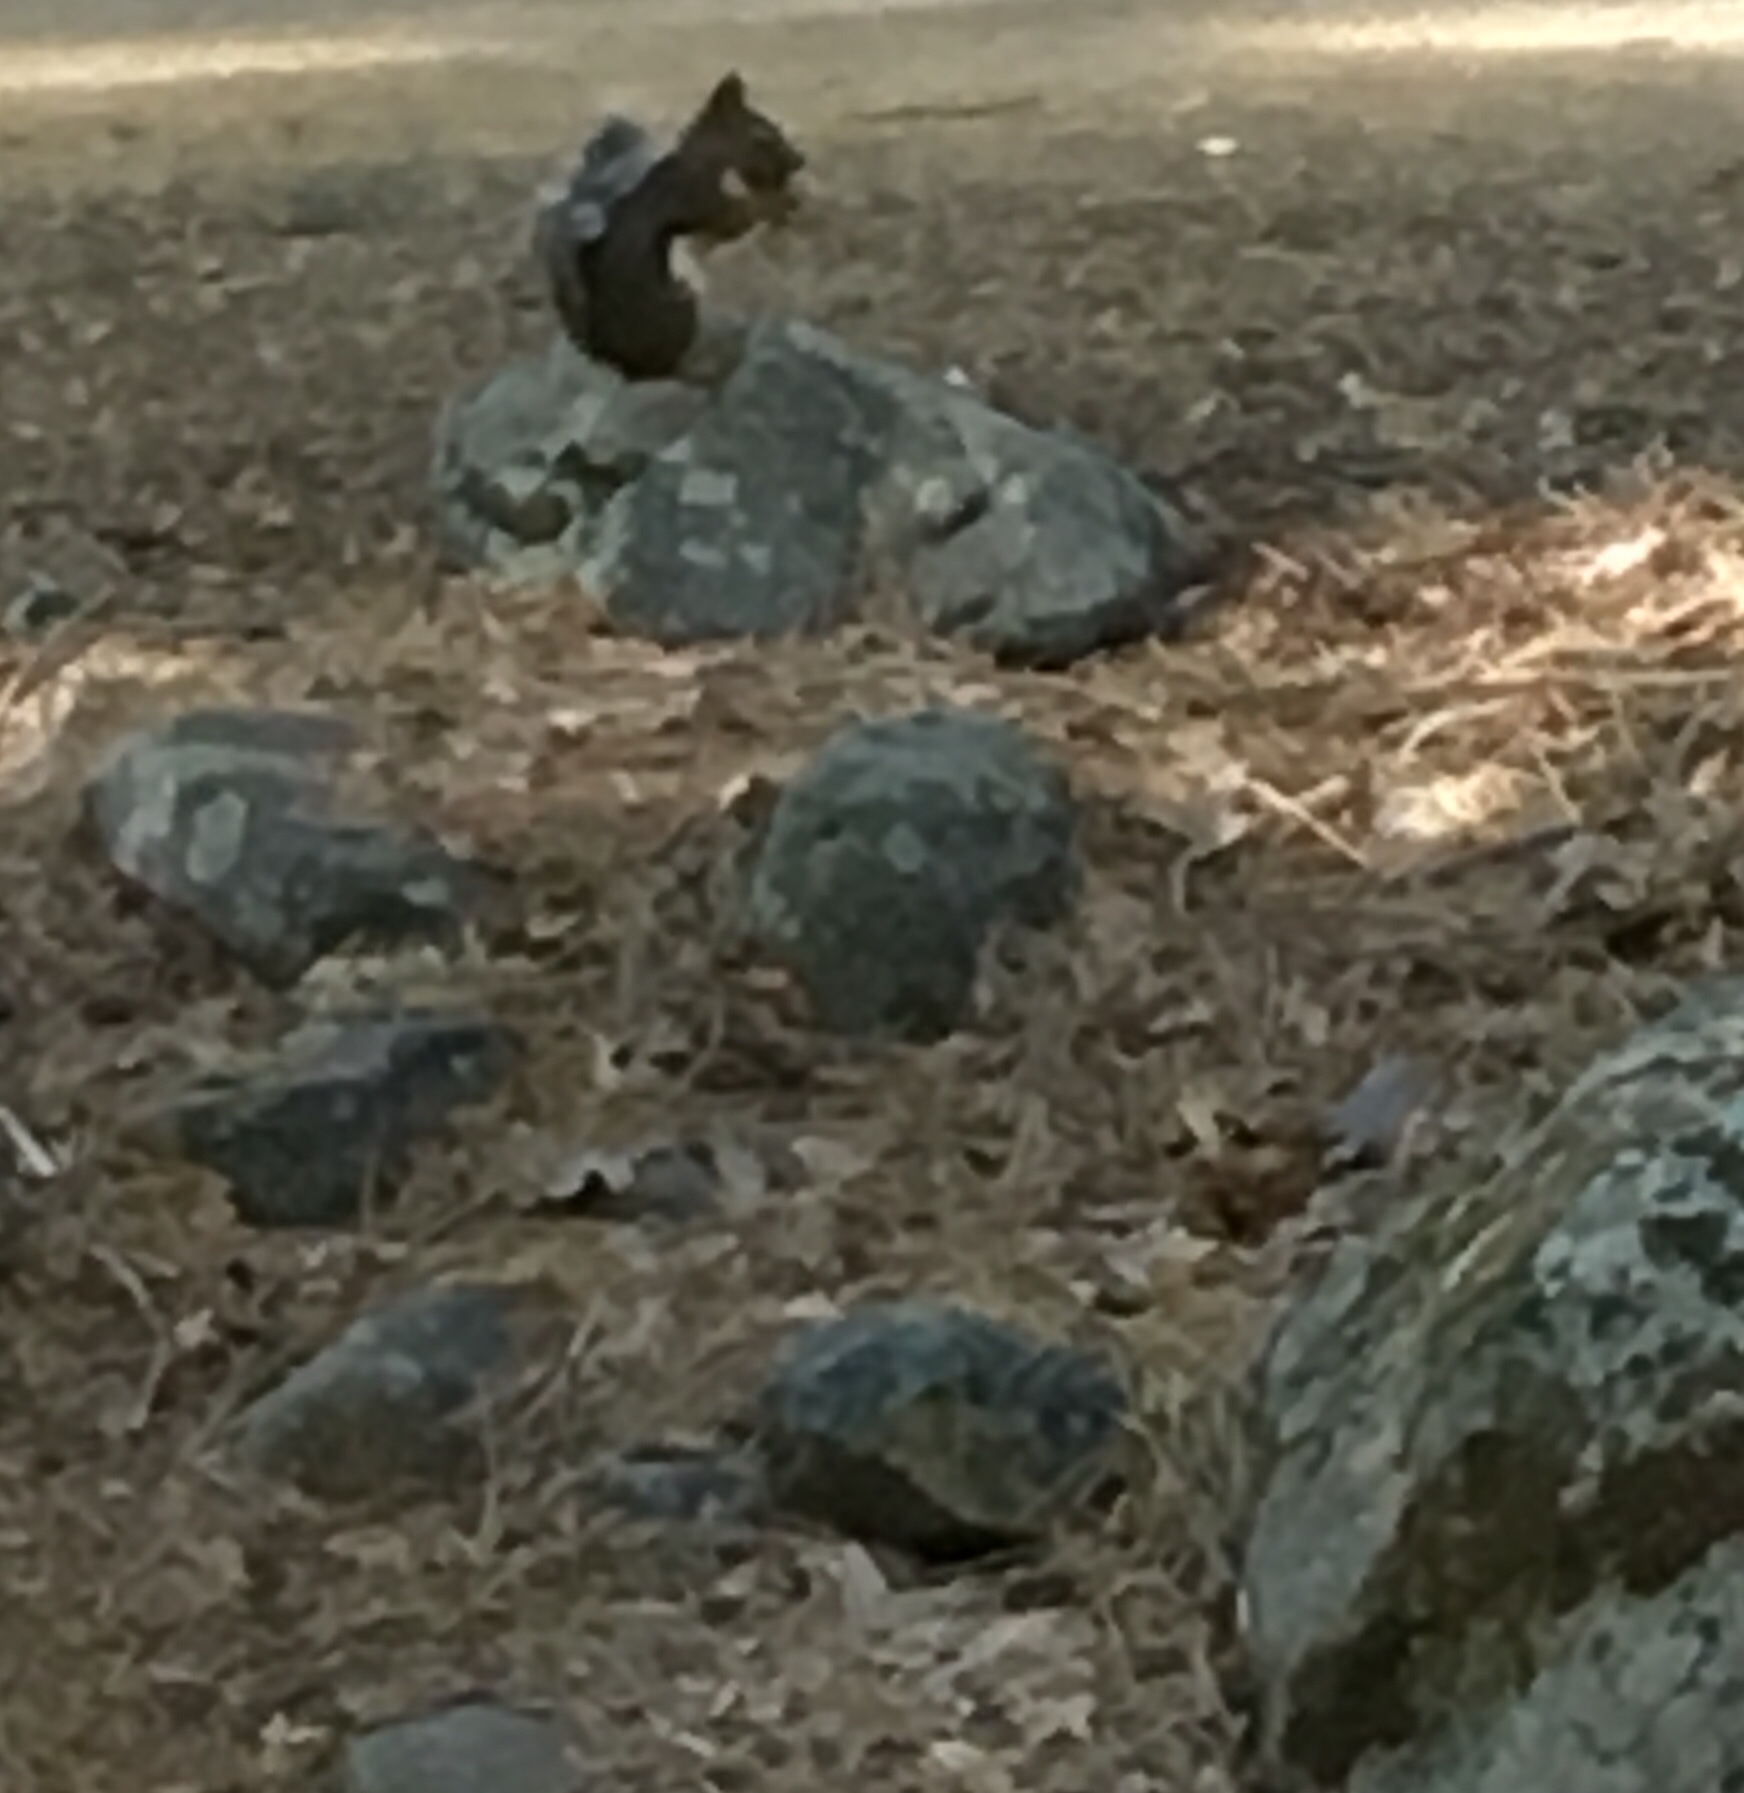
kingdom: Animalia
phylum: Chordata
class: Mammalia
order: Rodentia
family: Sciuridae
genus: Tamiasciurus
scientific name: Tamiasciurus douglasii
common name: Douglas's squirrel
